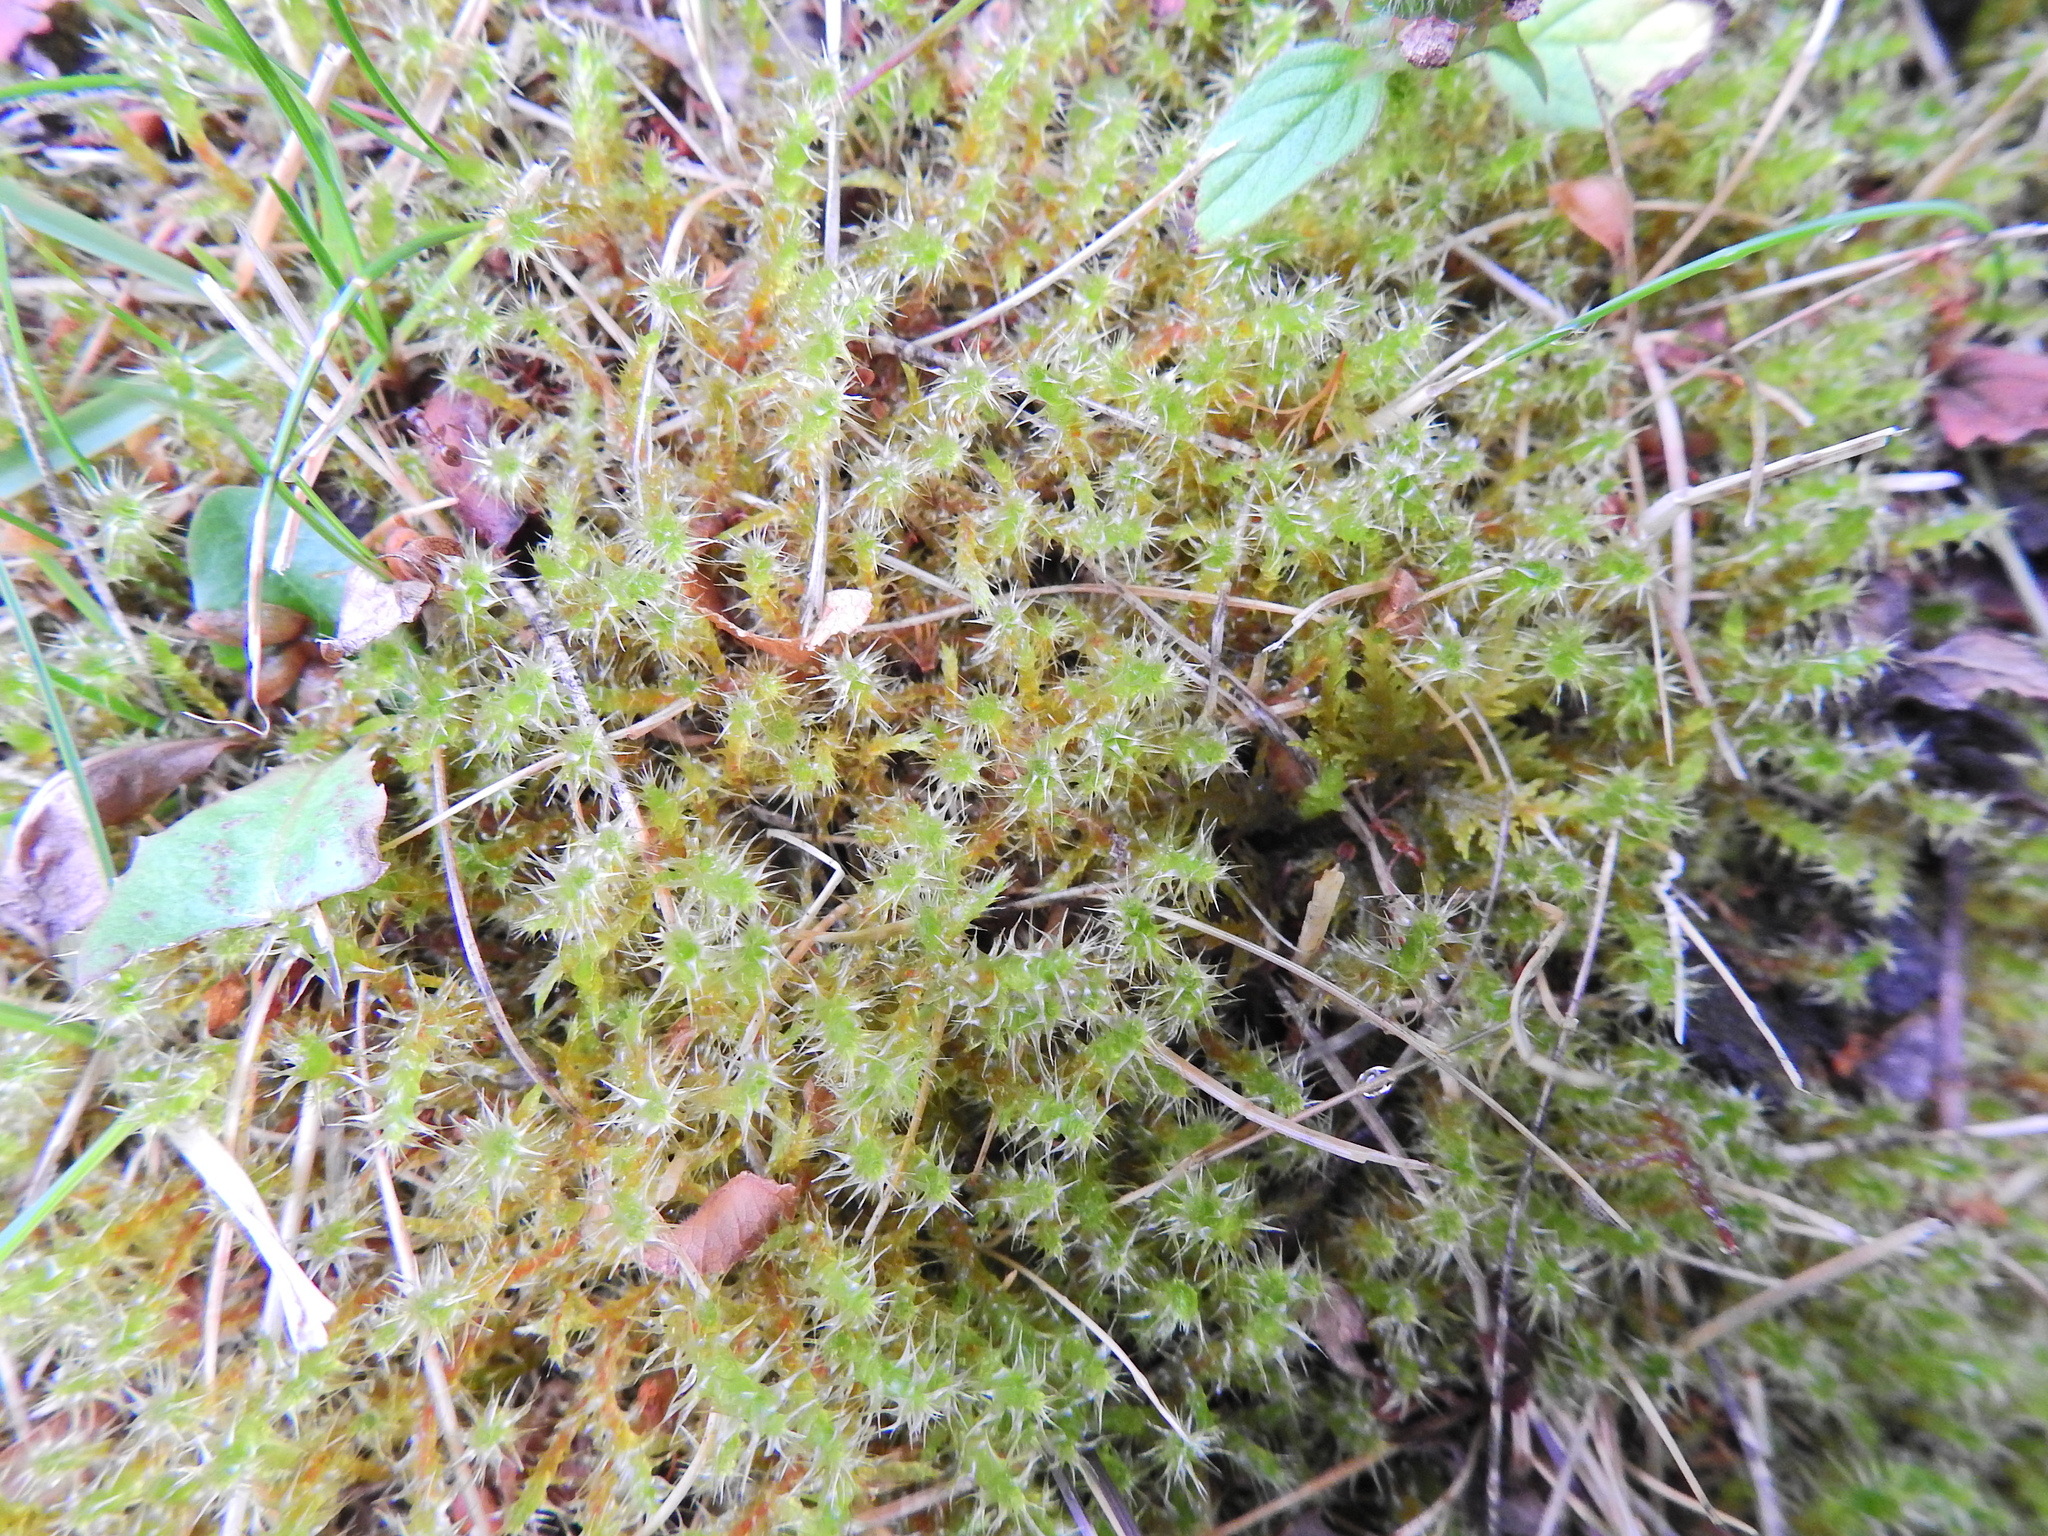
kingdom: Plantae
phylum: Bryophyta
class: Bryopsida
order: Hypnales
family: Hylocomiaceae
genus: Rhytidiadelphus
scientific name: Rhytidiadelphus squarrosus
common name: Springy turf-moss
